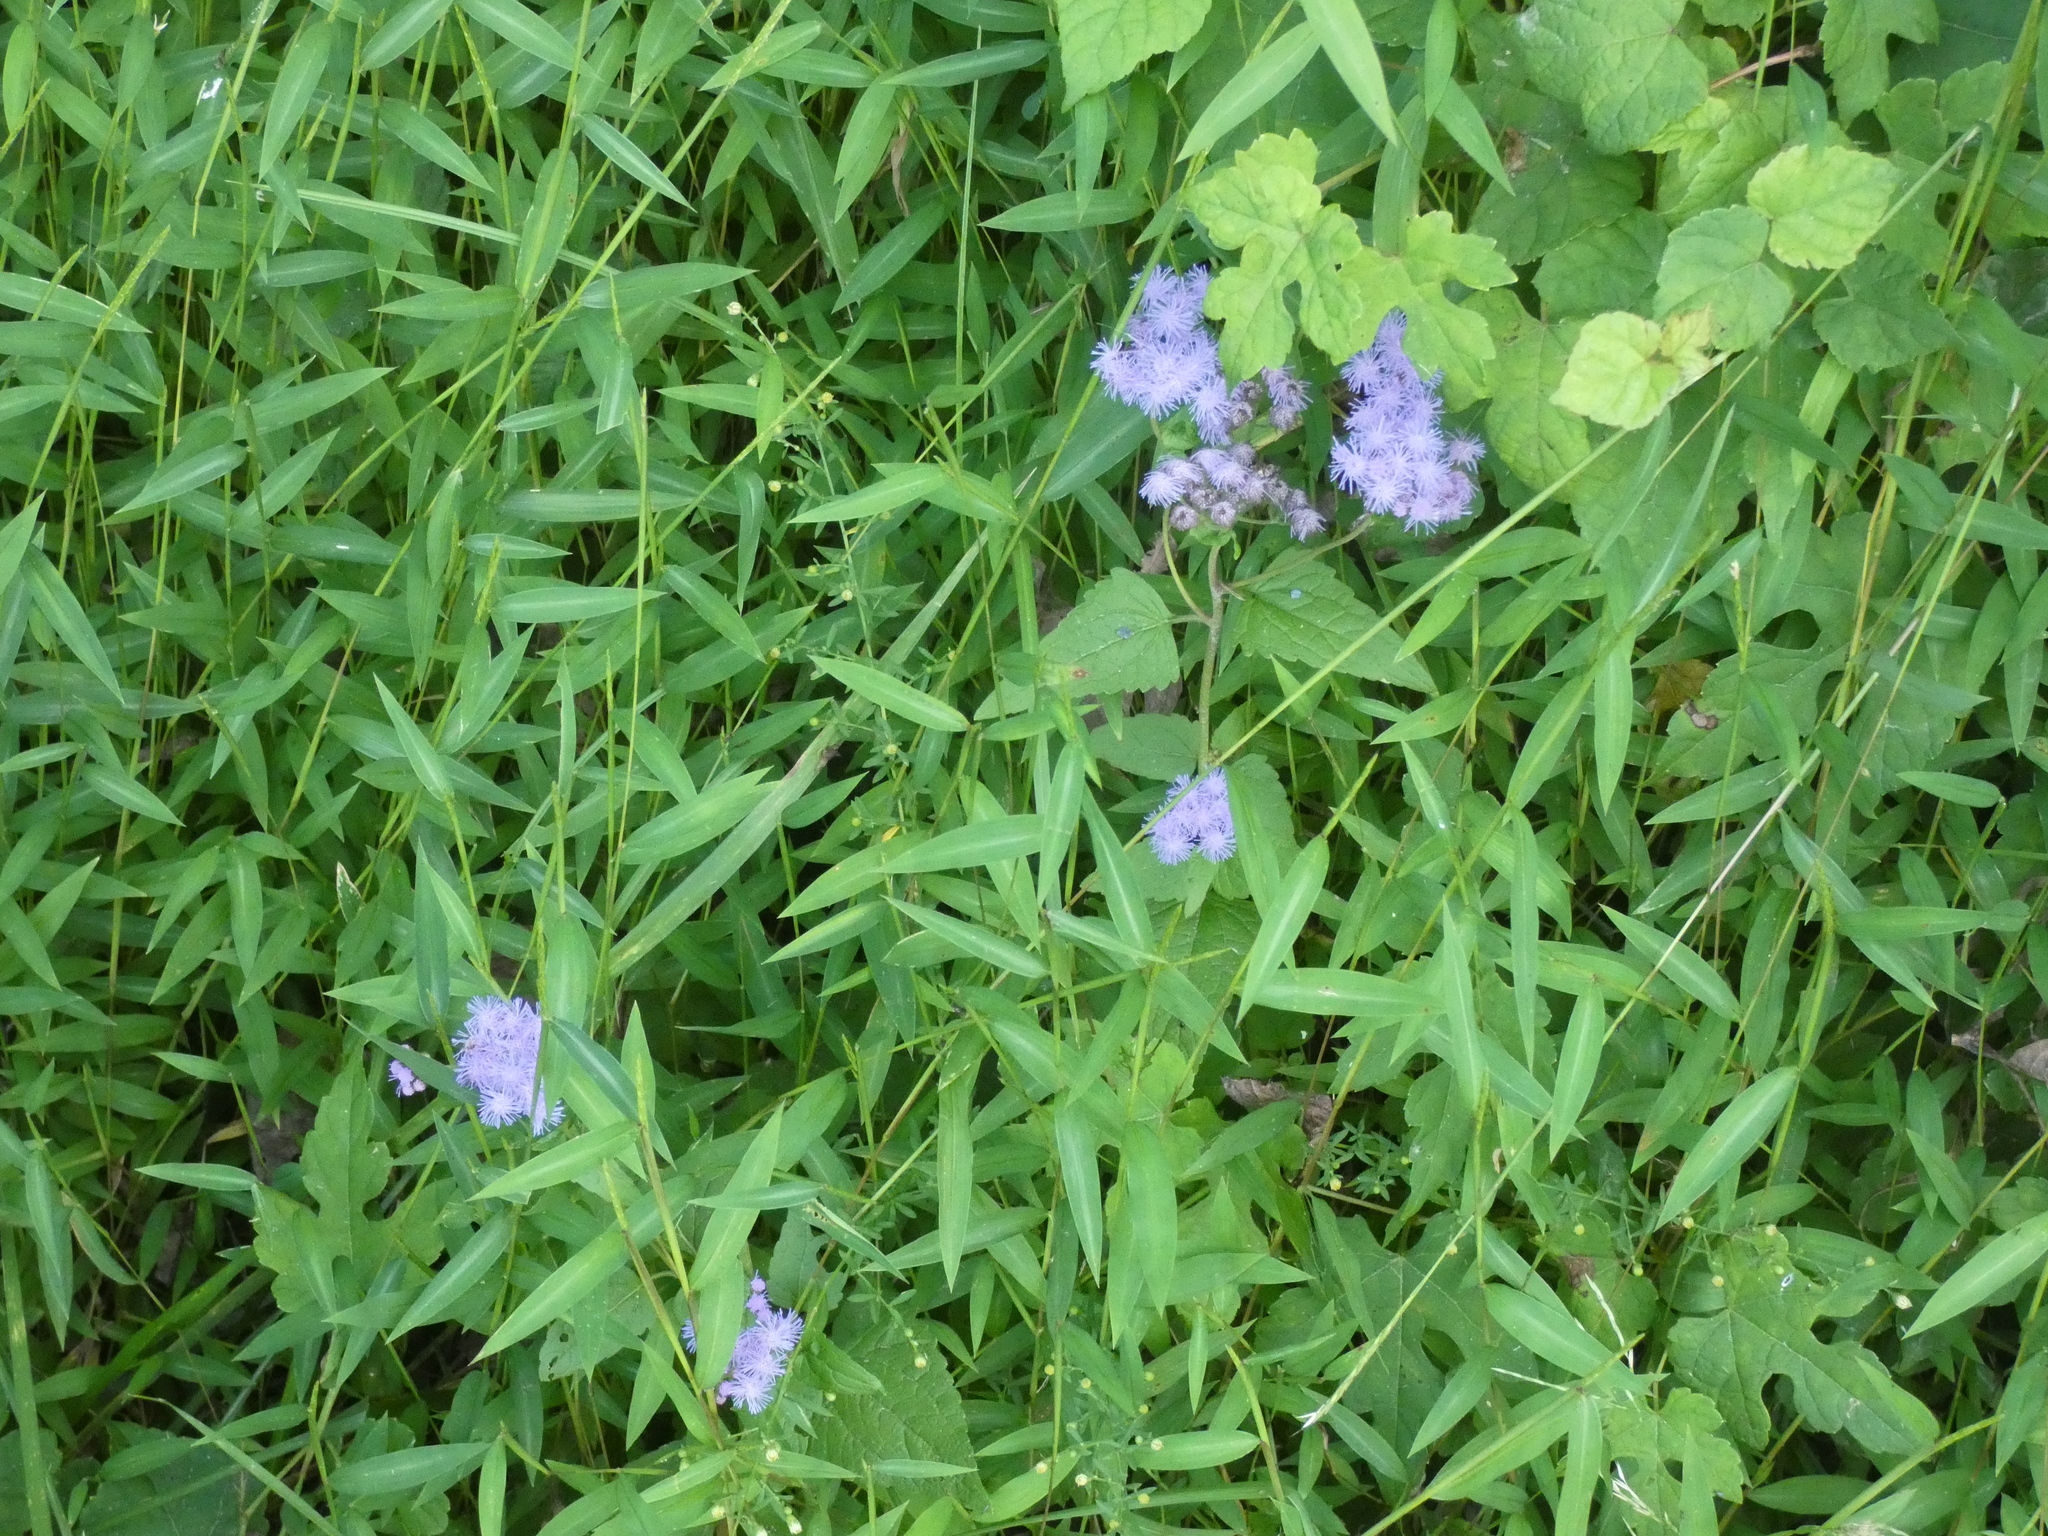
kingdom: Plantae
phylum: Tracheophyta
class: Magnoliopsida
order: Asterales
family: Asteraceae
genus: Conoclinium
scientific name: Conoclinium coelestinum
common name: Blue mistflower
